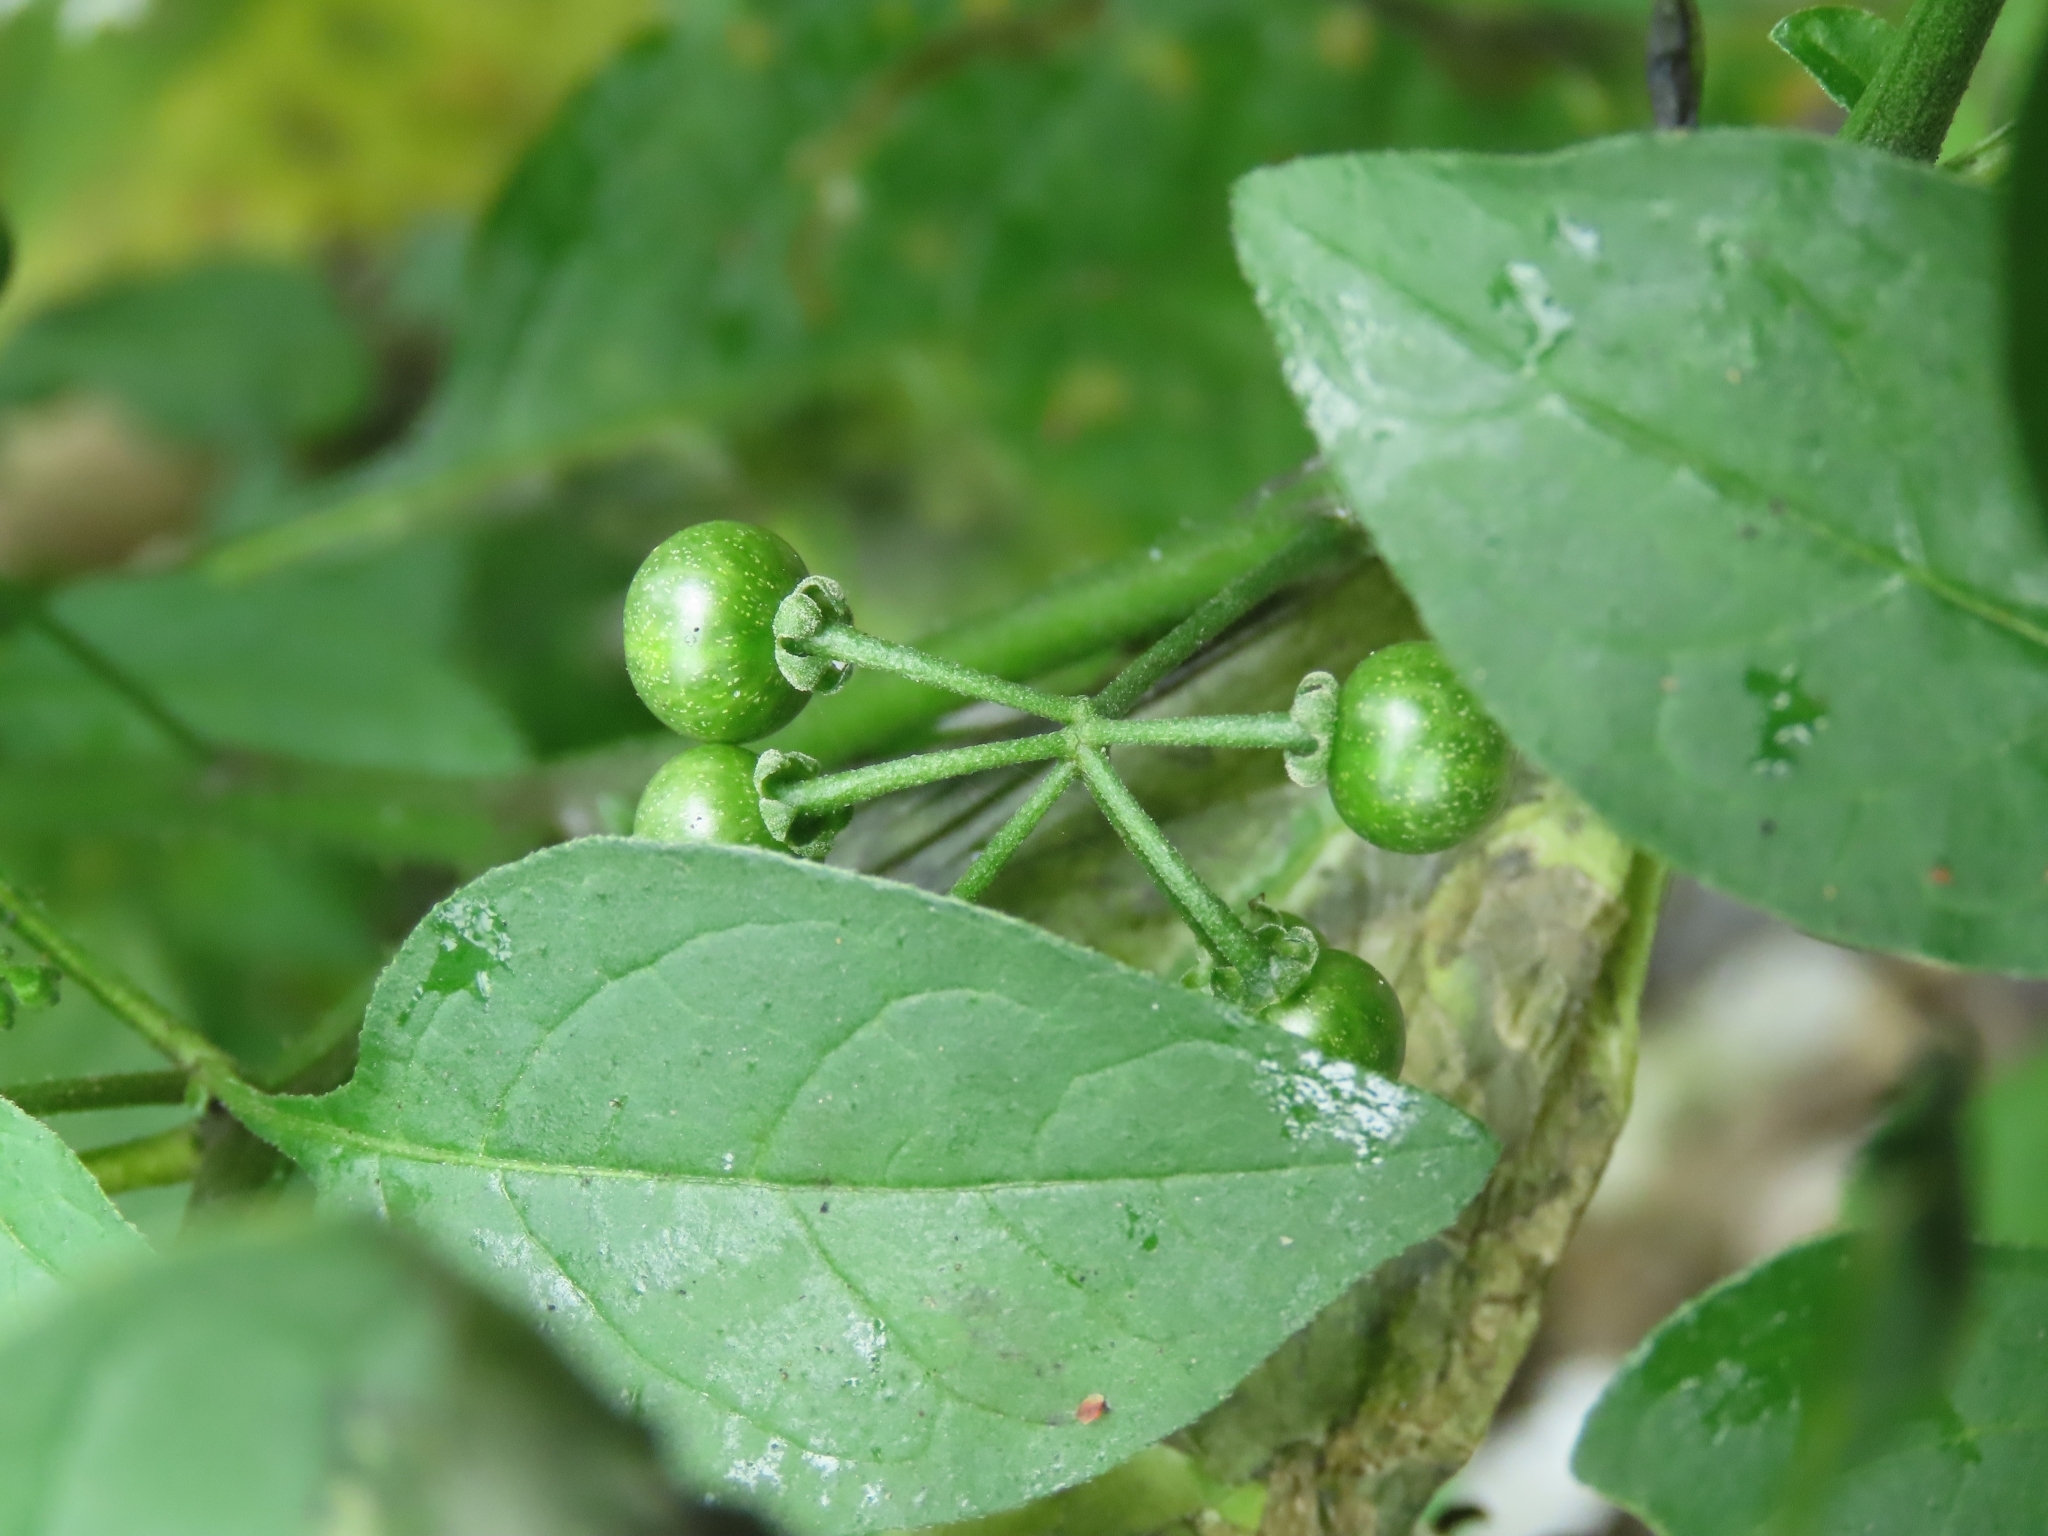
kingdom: Plantae
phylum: Tracheophyta
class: Magnoliopsida
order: Solanales
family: Solanaceae
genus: Solanum
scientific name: Solanum americanum
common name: American black nightshade
